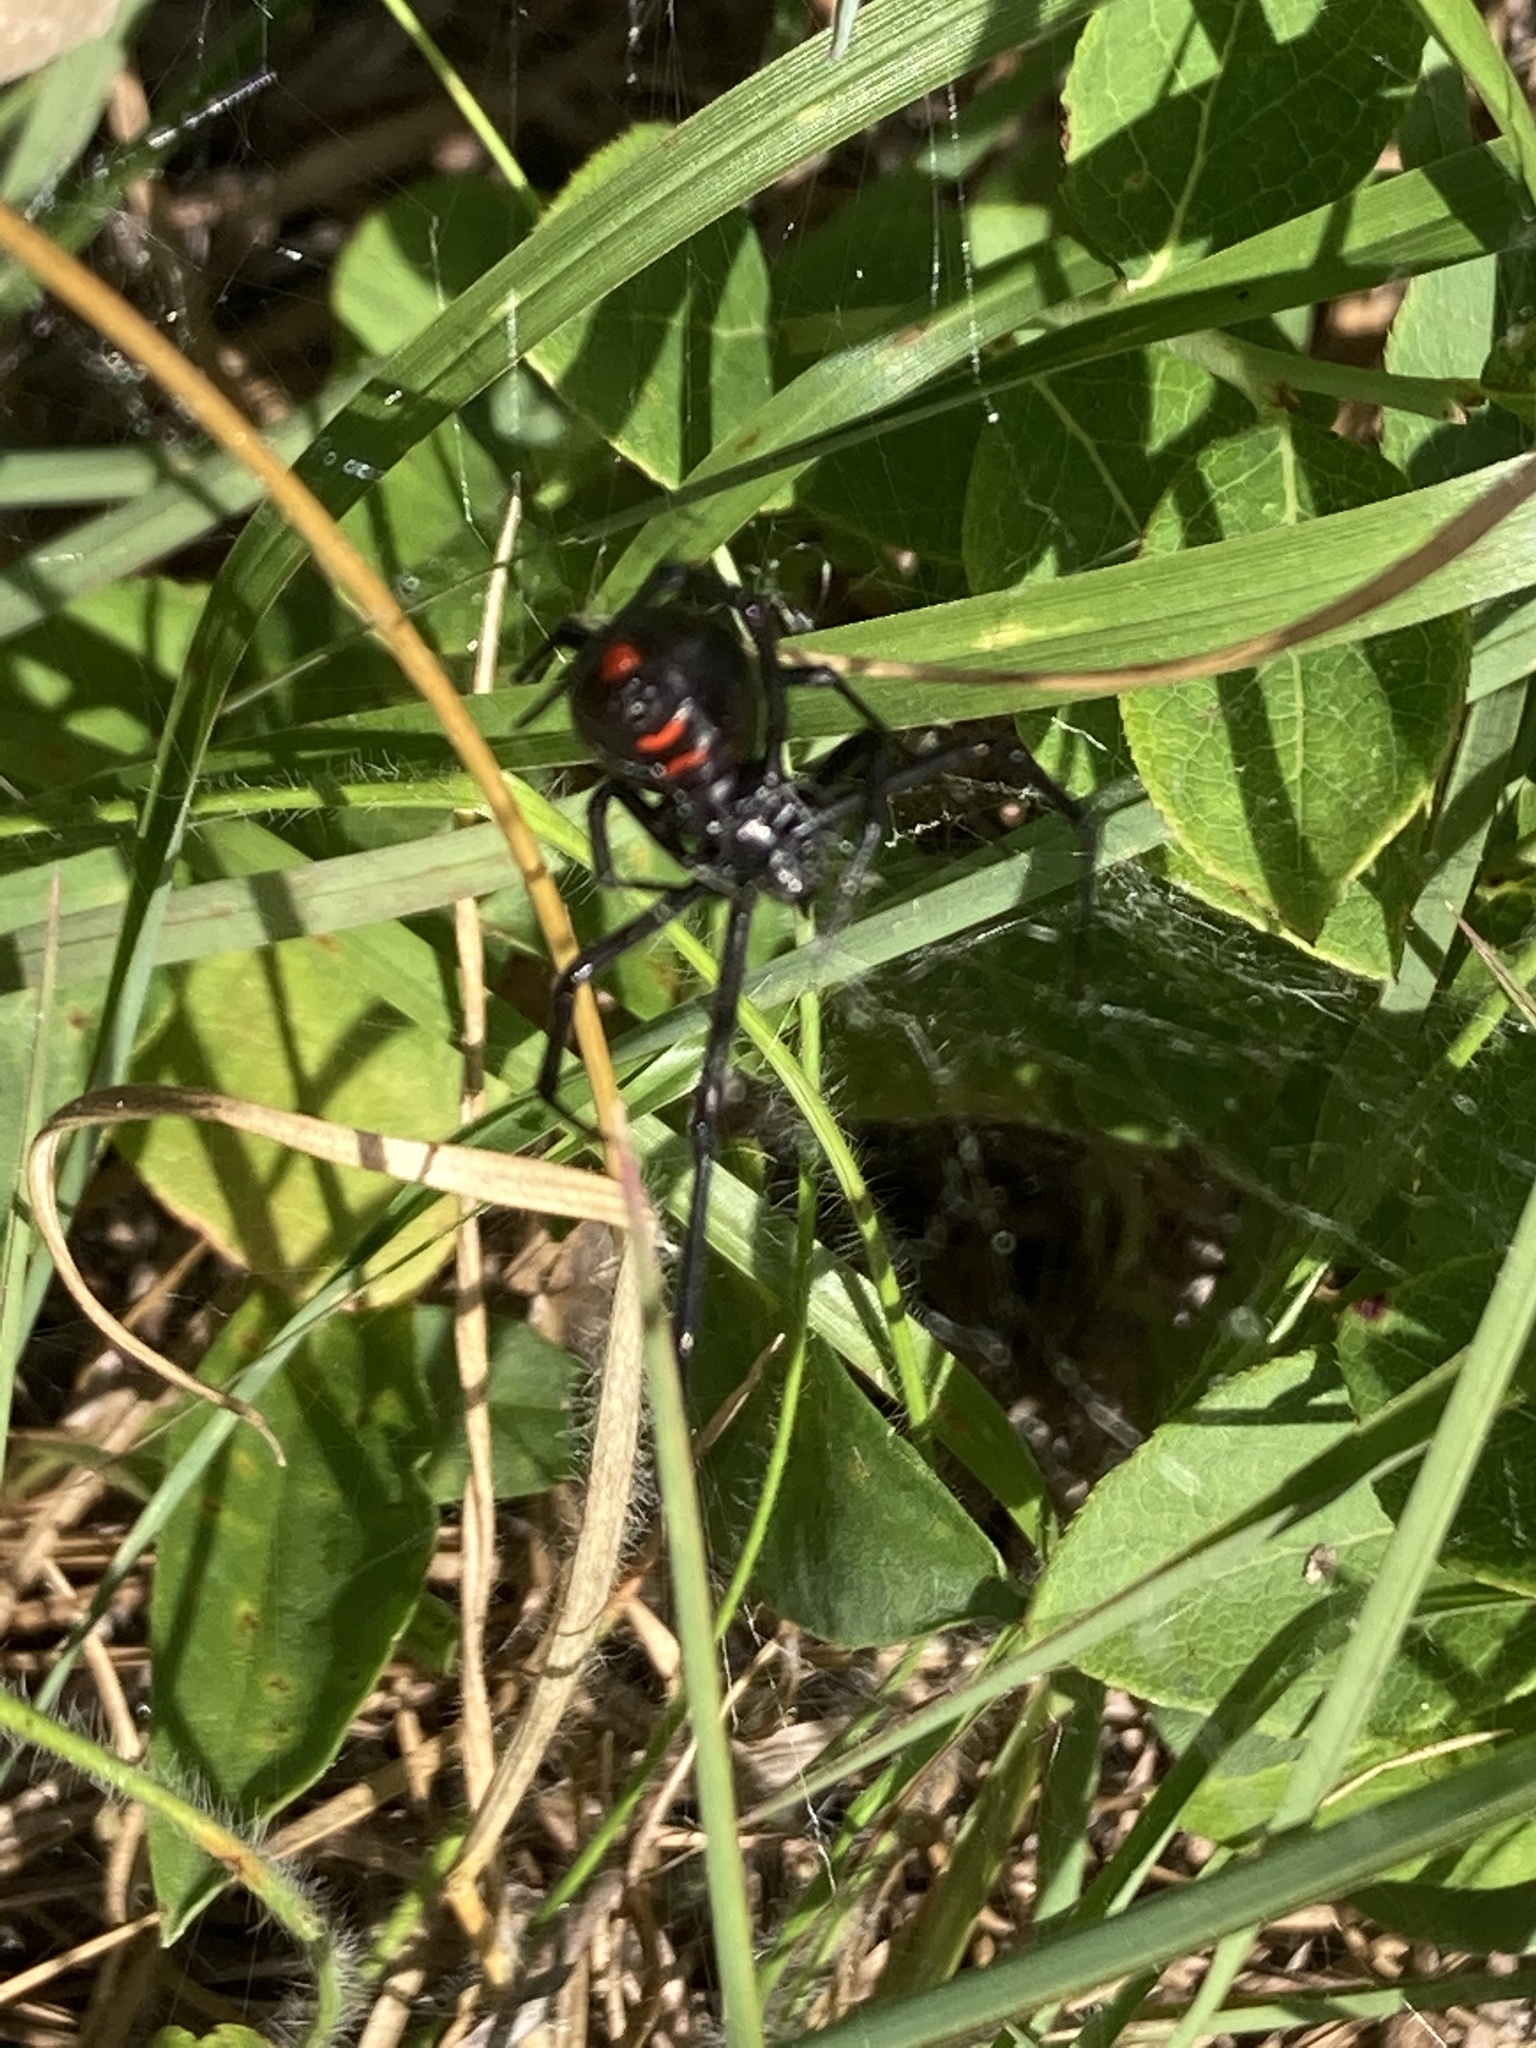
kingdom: Animalia
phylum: Arthropoda
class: Arachnida
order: Araneae
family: Theridiidae
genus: Latrodectus
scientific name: Latrodectus variolus
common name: Northern black widow
